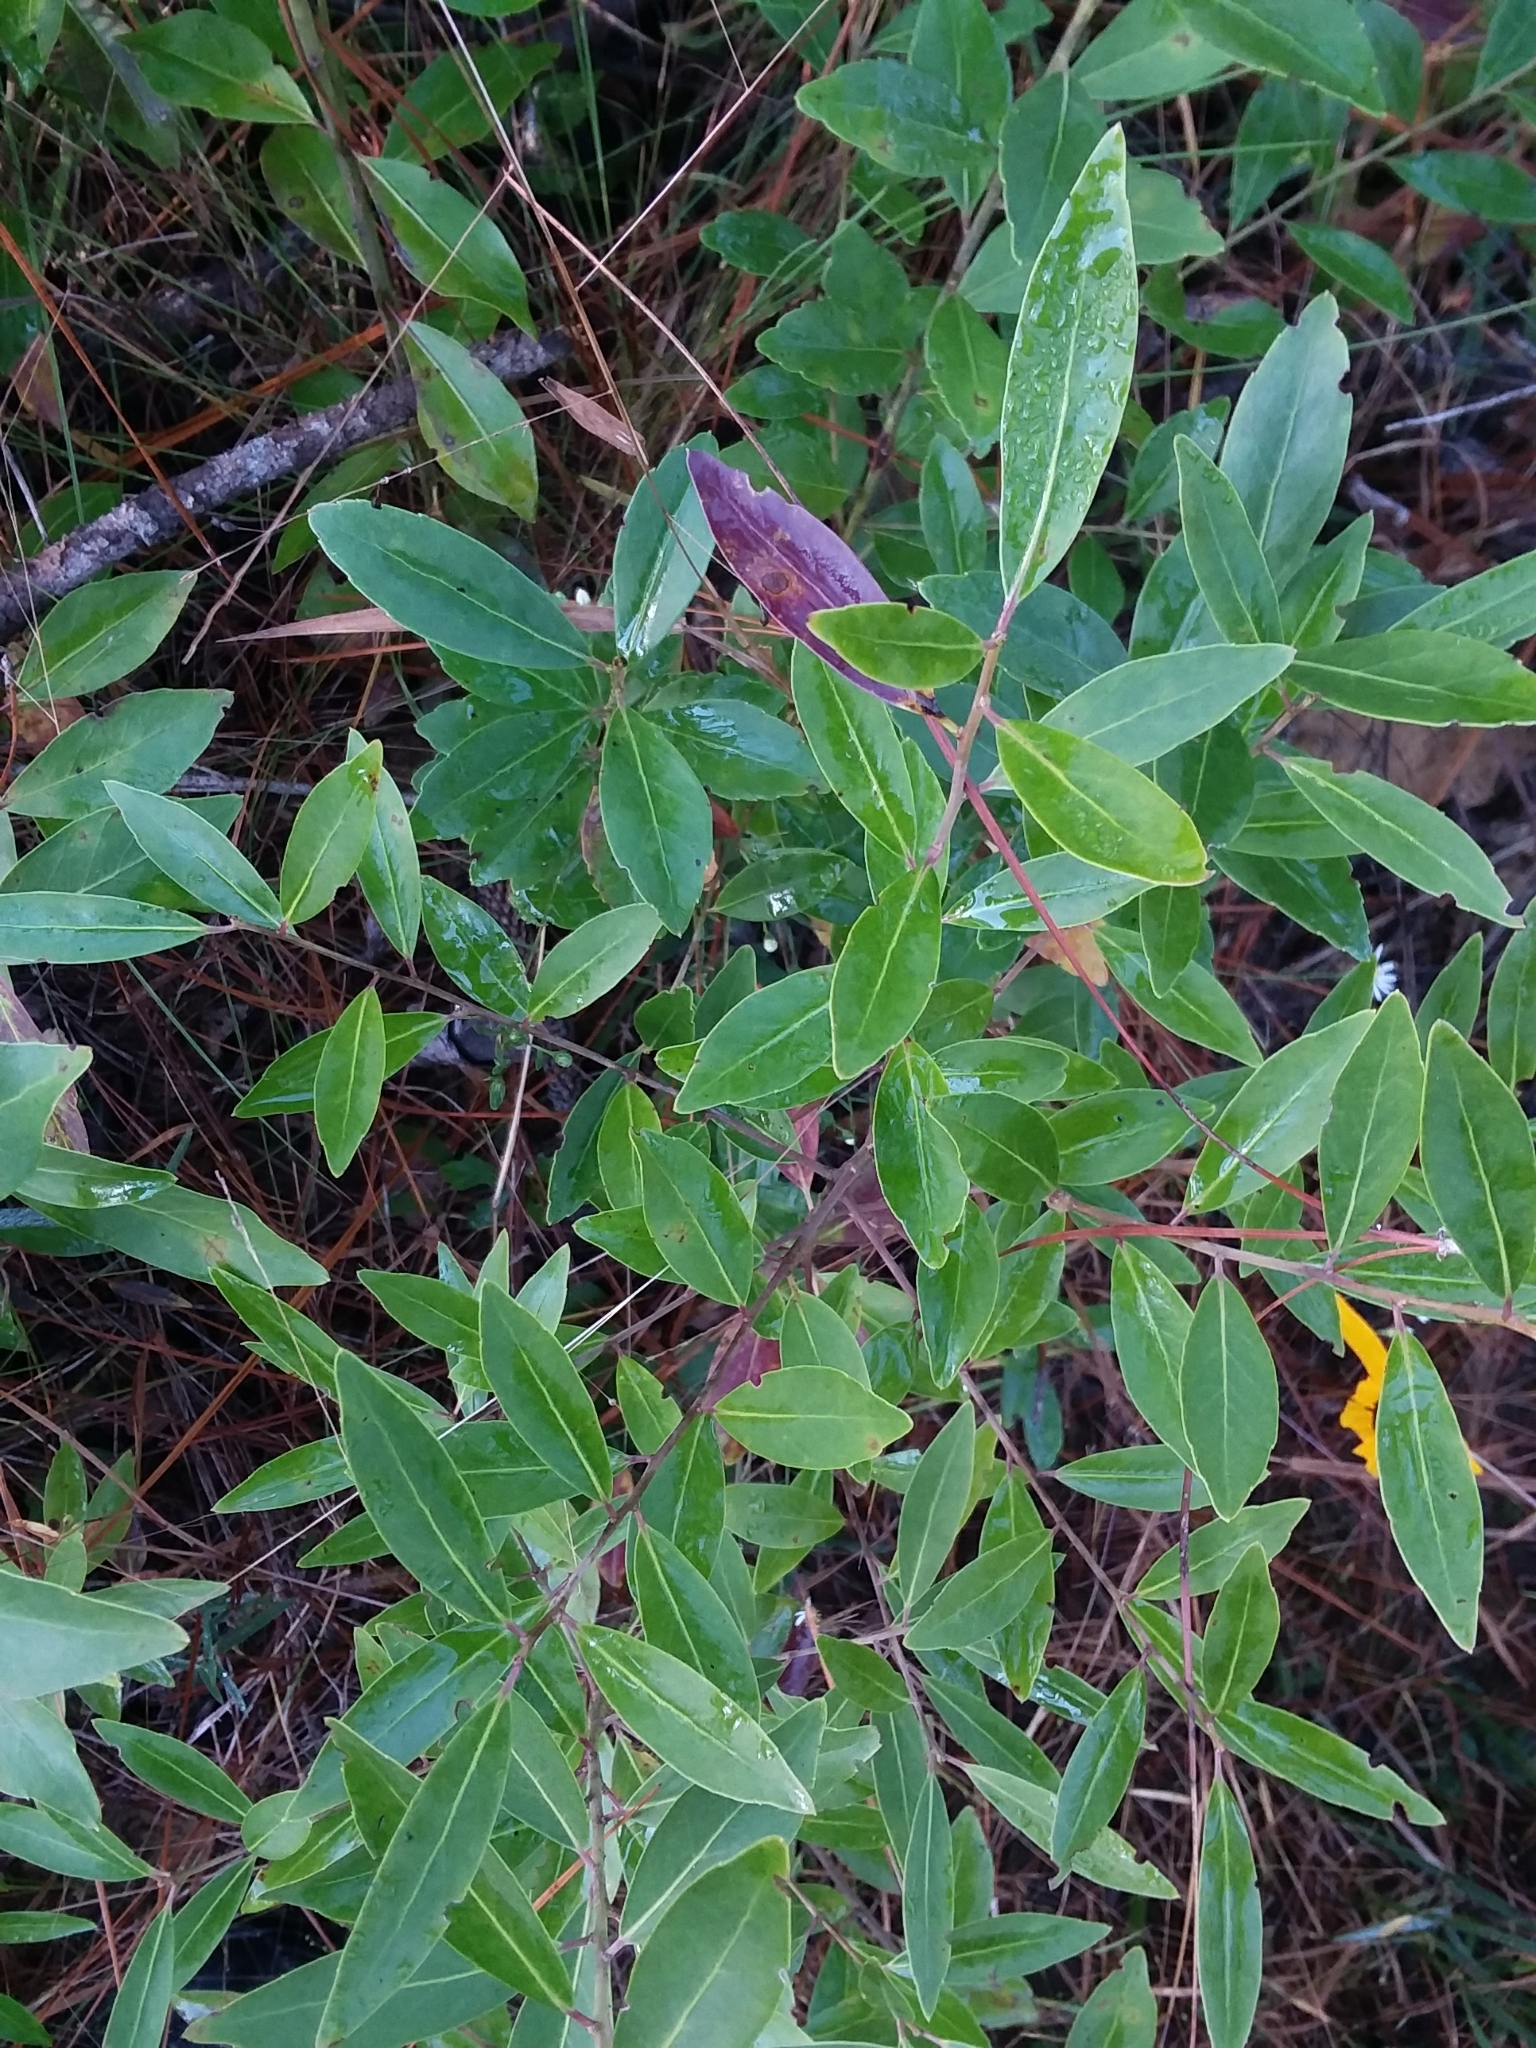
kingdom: Plantae
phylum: Tracheophyta
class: Magnoliopsida
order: Aquifoliales
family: Aquifoliaceae
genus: Ilex
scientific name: Ilex glabra
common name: Bitter gallberry
